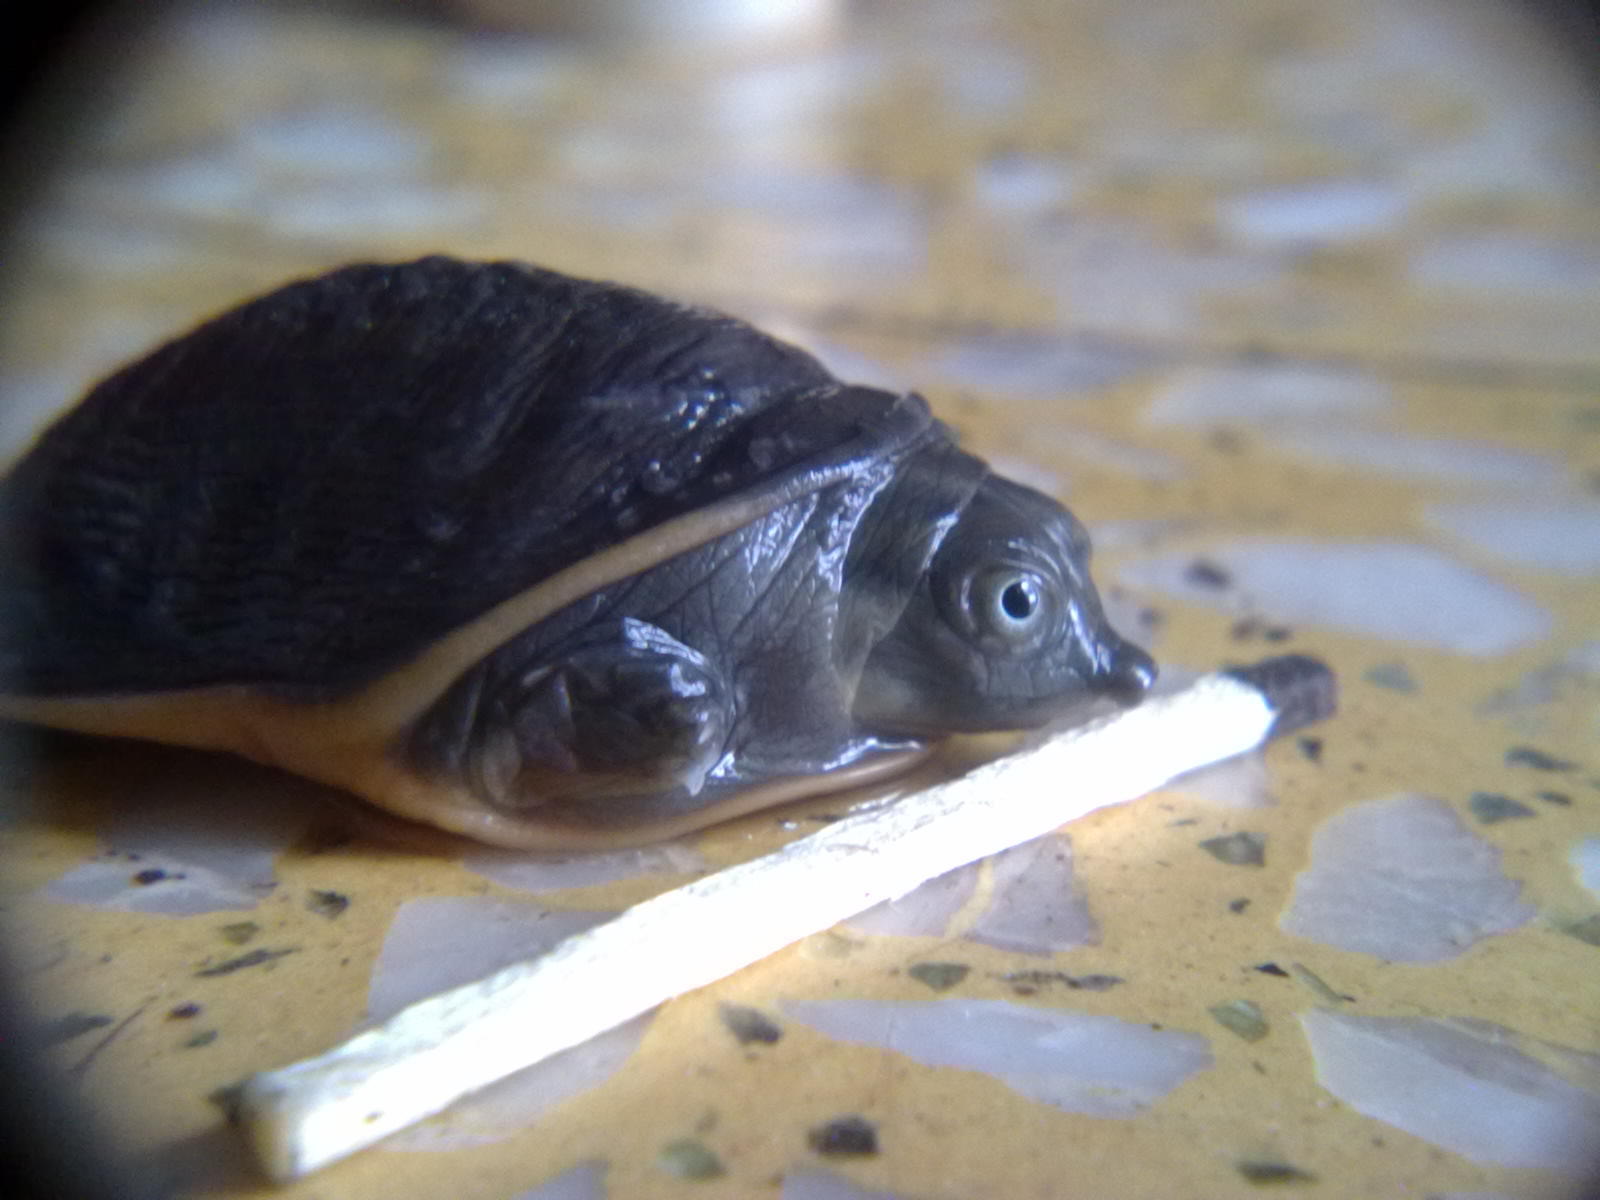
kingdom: Animalia
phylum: Chordata
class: Testudines
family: Trionychidae
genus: Lissemys
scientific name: Lissemys punctata
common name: Indian flap-shelled turtle
